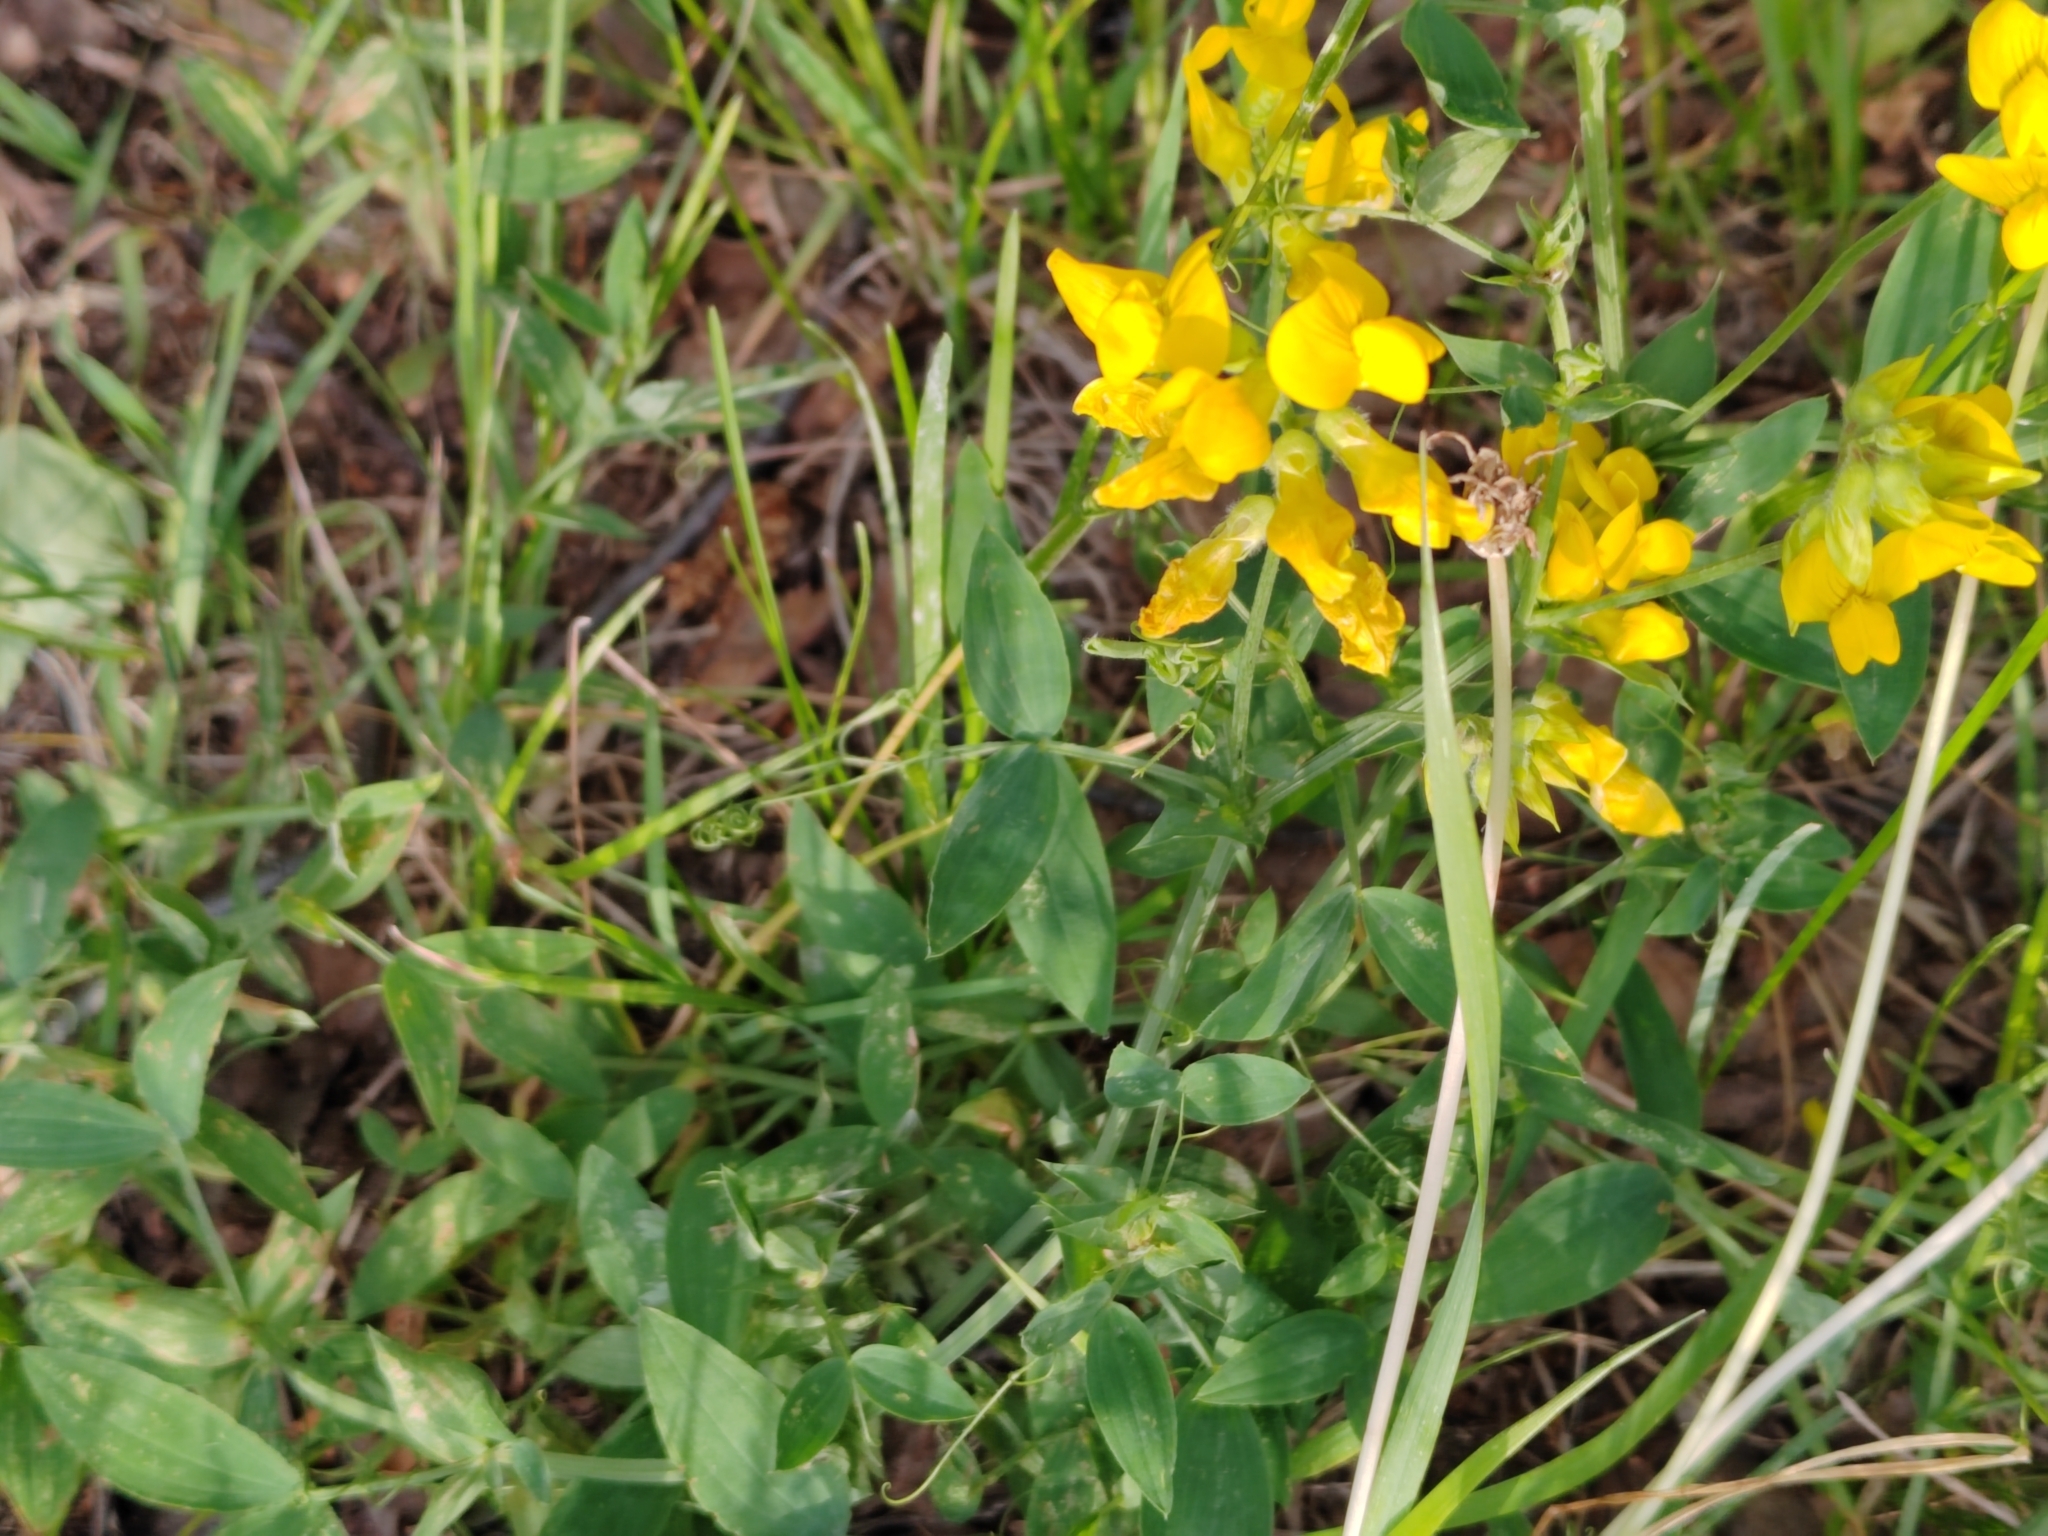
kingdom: Plantae
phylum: Tracheophyta
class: Magnoliopsida
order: Fabales
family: Fabaceae
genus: Lathyrus
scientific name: Lathyrus pratensis
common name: Meadow vetchling
